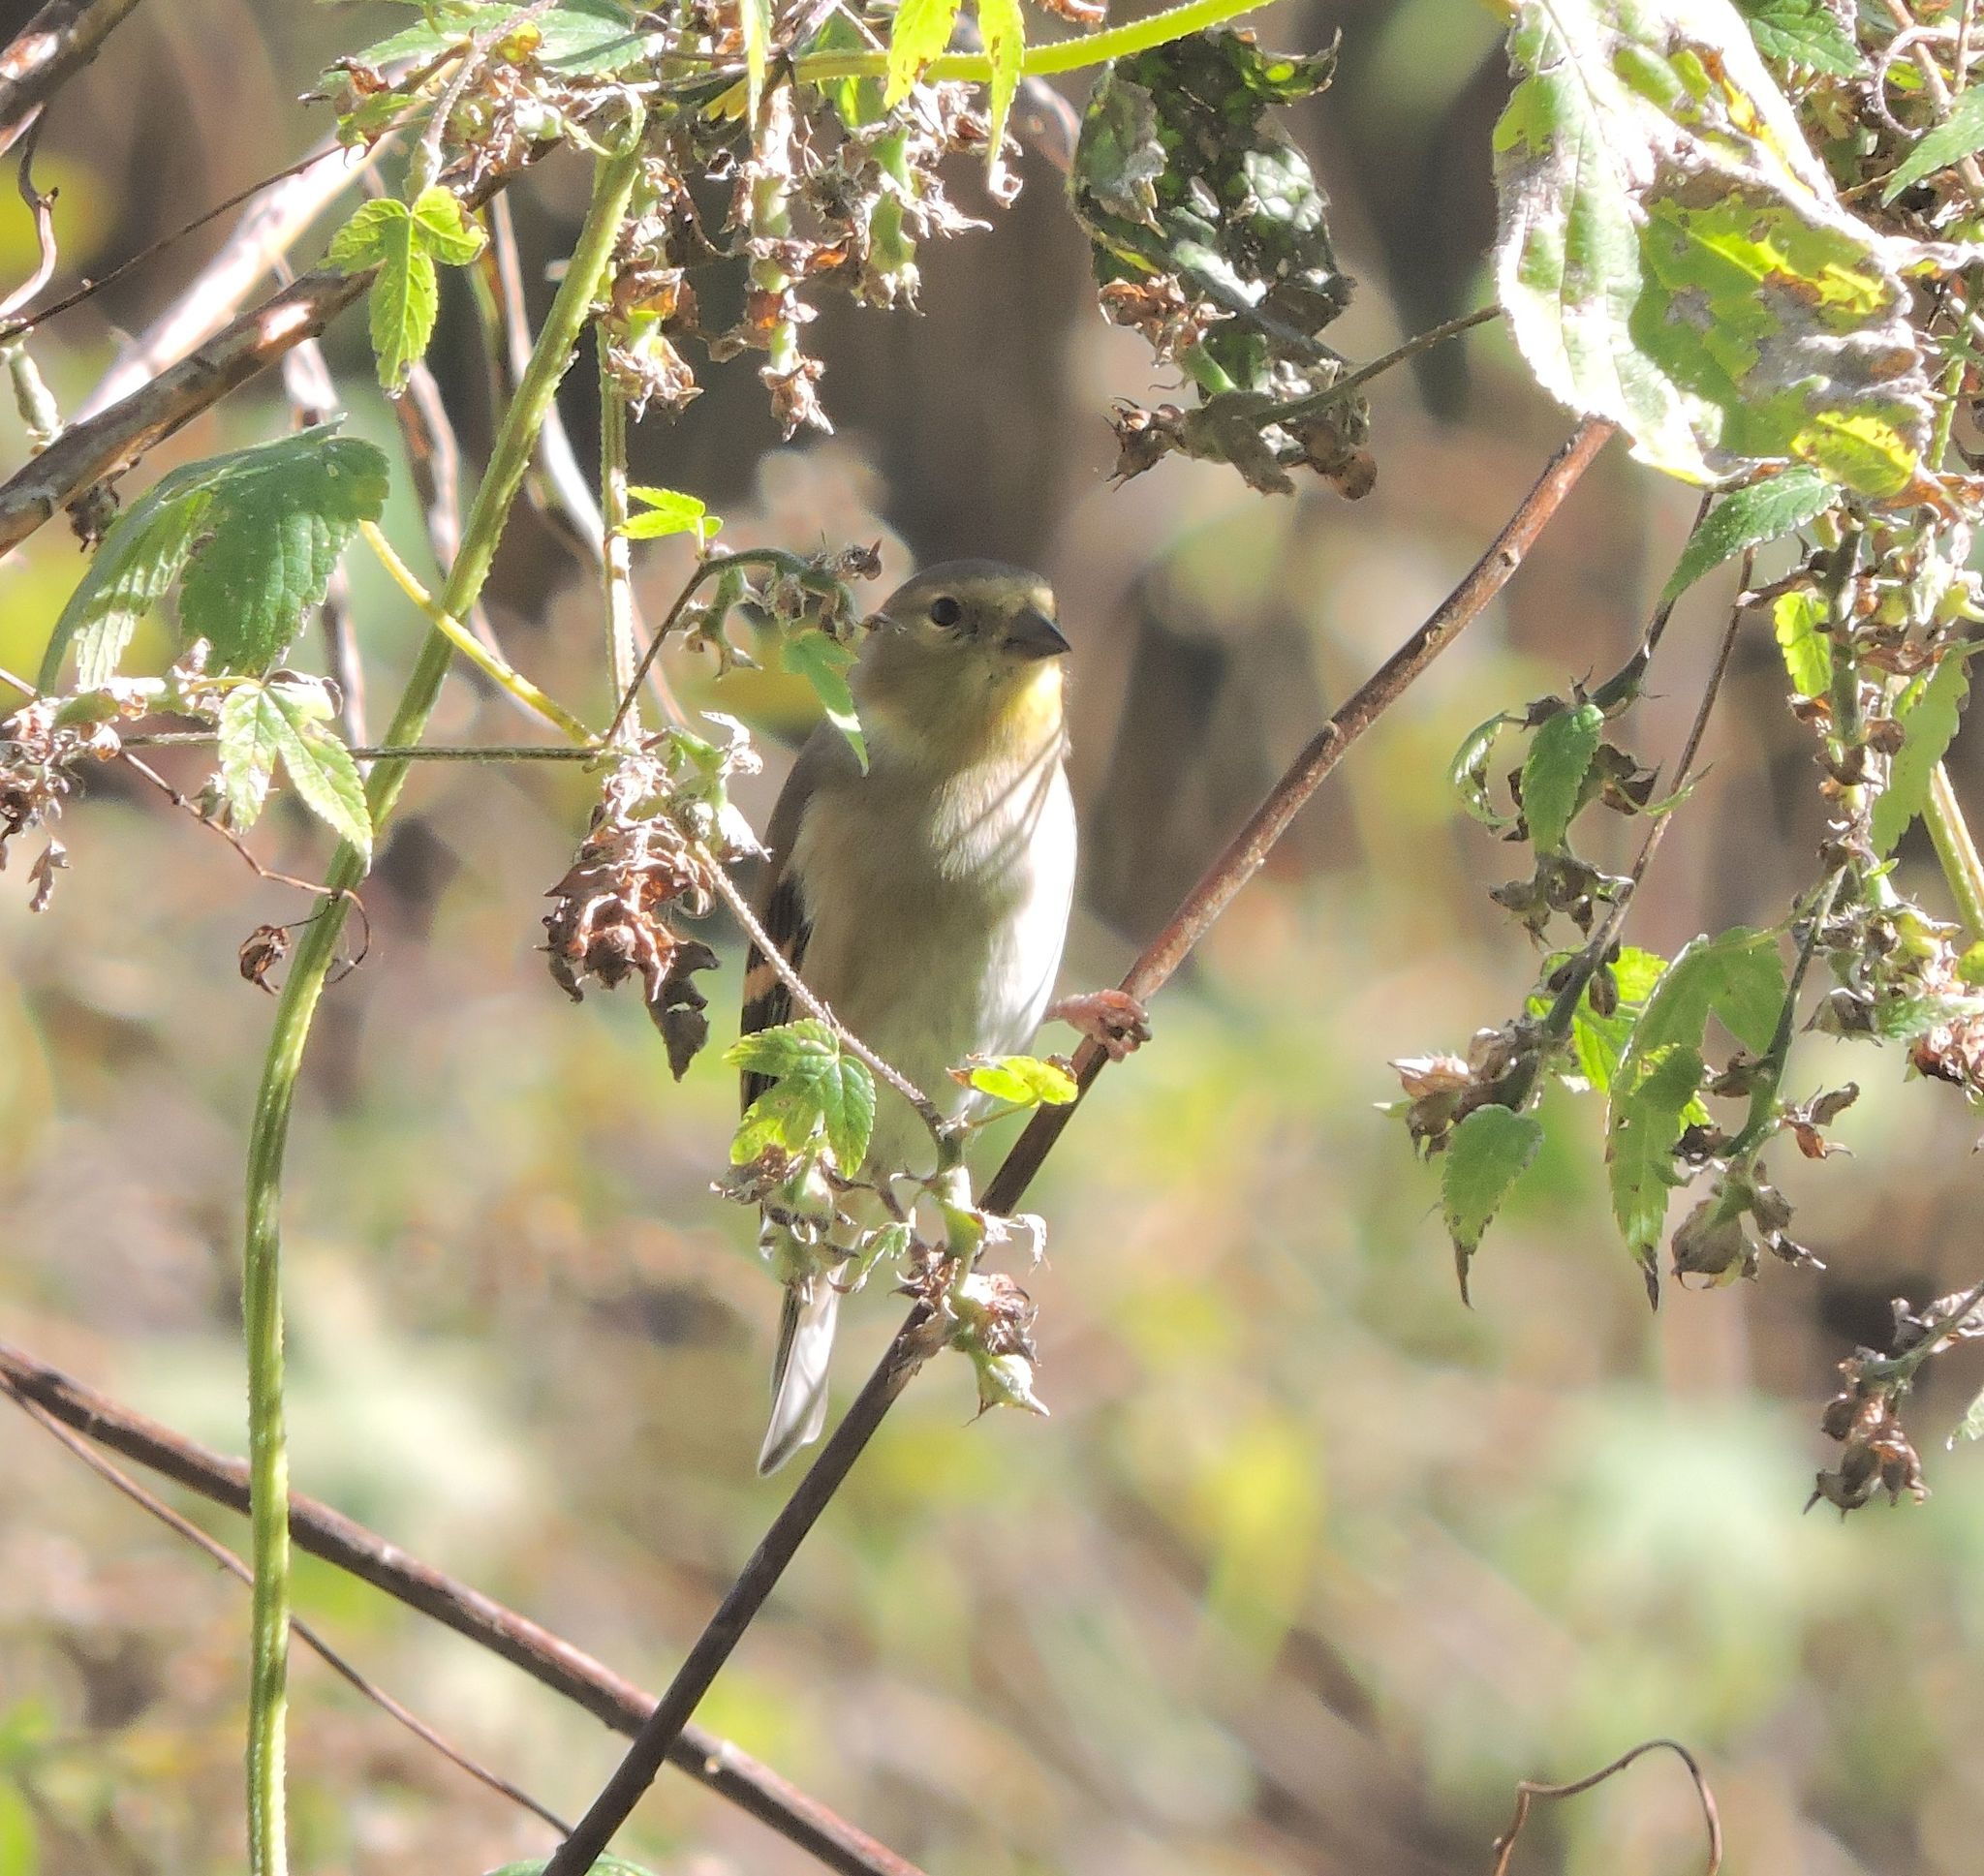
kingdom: Animalia
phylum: Chordata
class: Aves
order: Passeriformes
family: Fringillidae
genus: Spinus
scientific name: Spinus tristis
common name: American goldfinch
